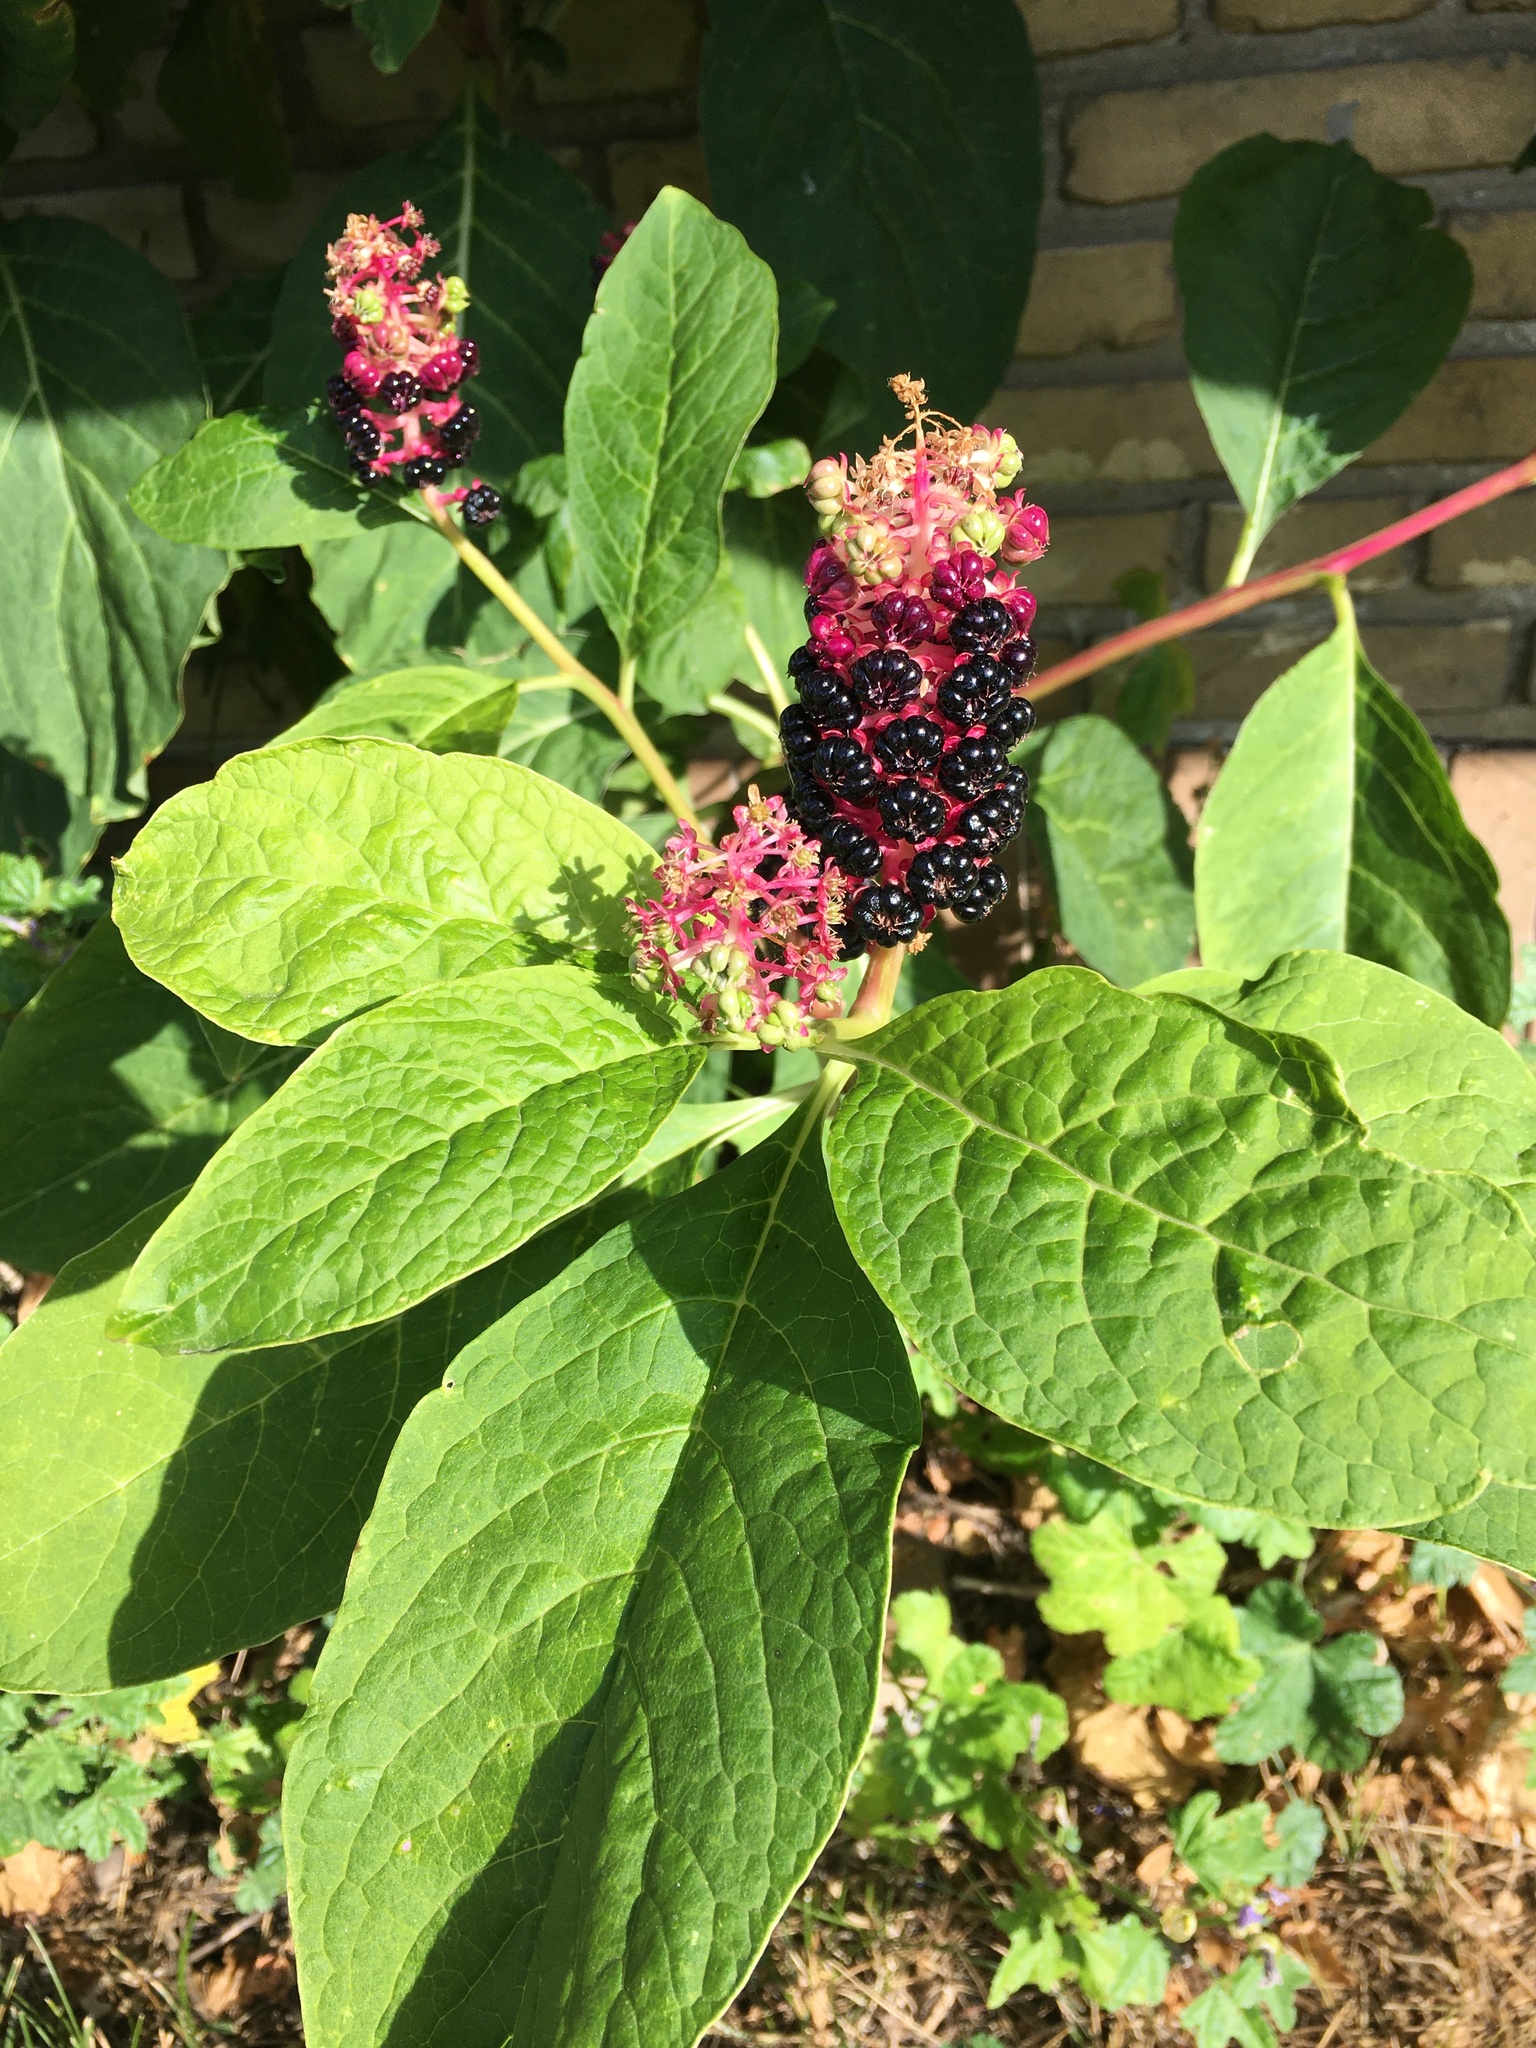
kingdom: Plantae
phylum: Tracheophyta
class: Magnoliopsida
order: Caryophyllales
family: Phytolaccaceae
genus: Phytolacca
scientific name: Phytolacca acinosa
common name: Indian pokeweed
